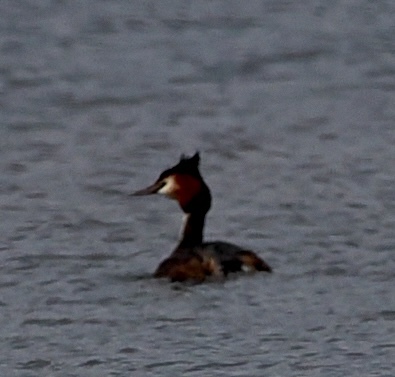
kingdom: Animalia
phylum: Chordata
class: Aves
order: Podicipediformes
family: Podicipedidae
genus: Podiceps
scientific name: Podiceps cristatus
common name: Great crested grebe
